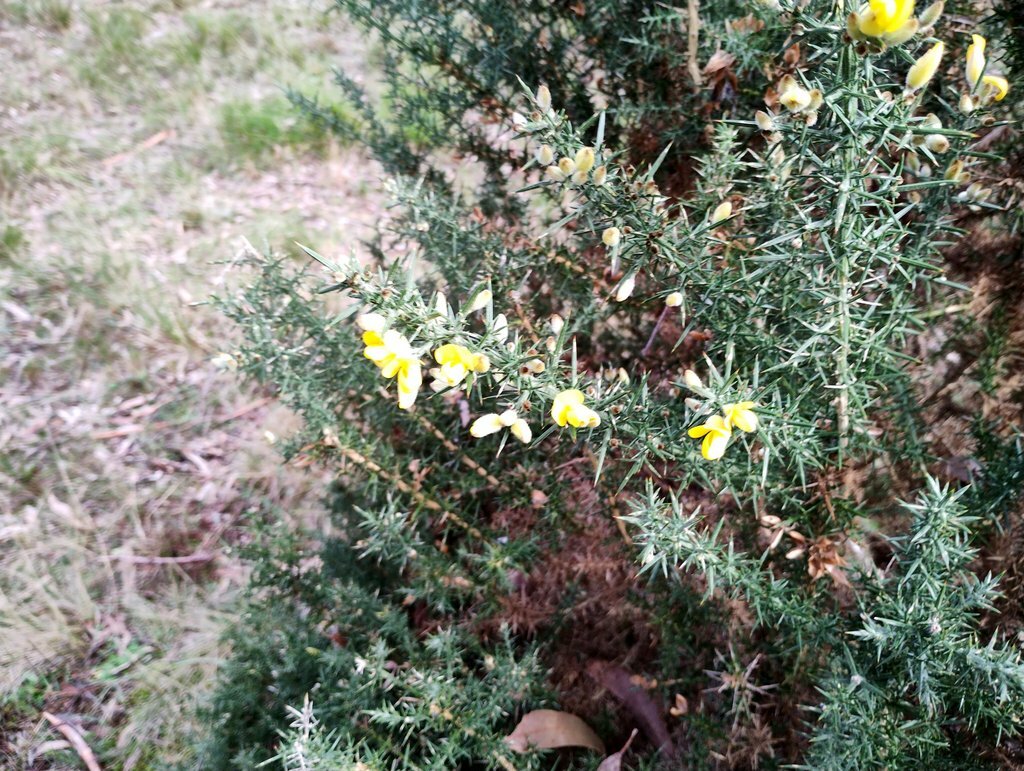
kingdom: Plantae
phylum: Tracheophyta
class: Magnoliopsida
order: Fabales
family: Fabaceae
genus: Ulex
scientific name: Ulex europaeus
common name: Common gorse
